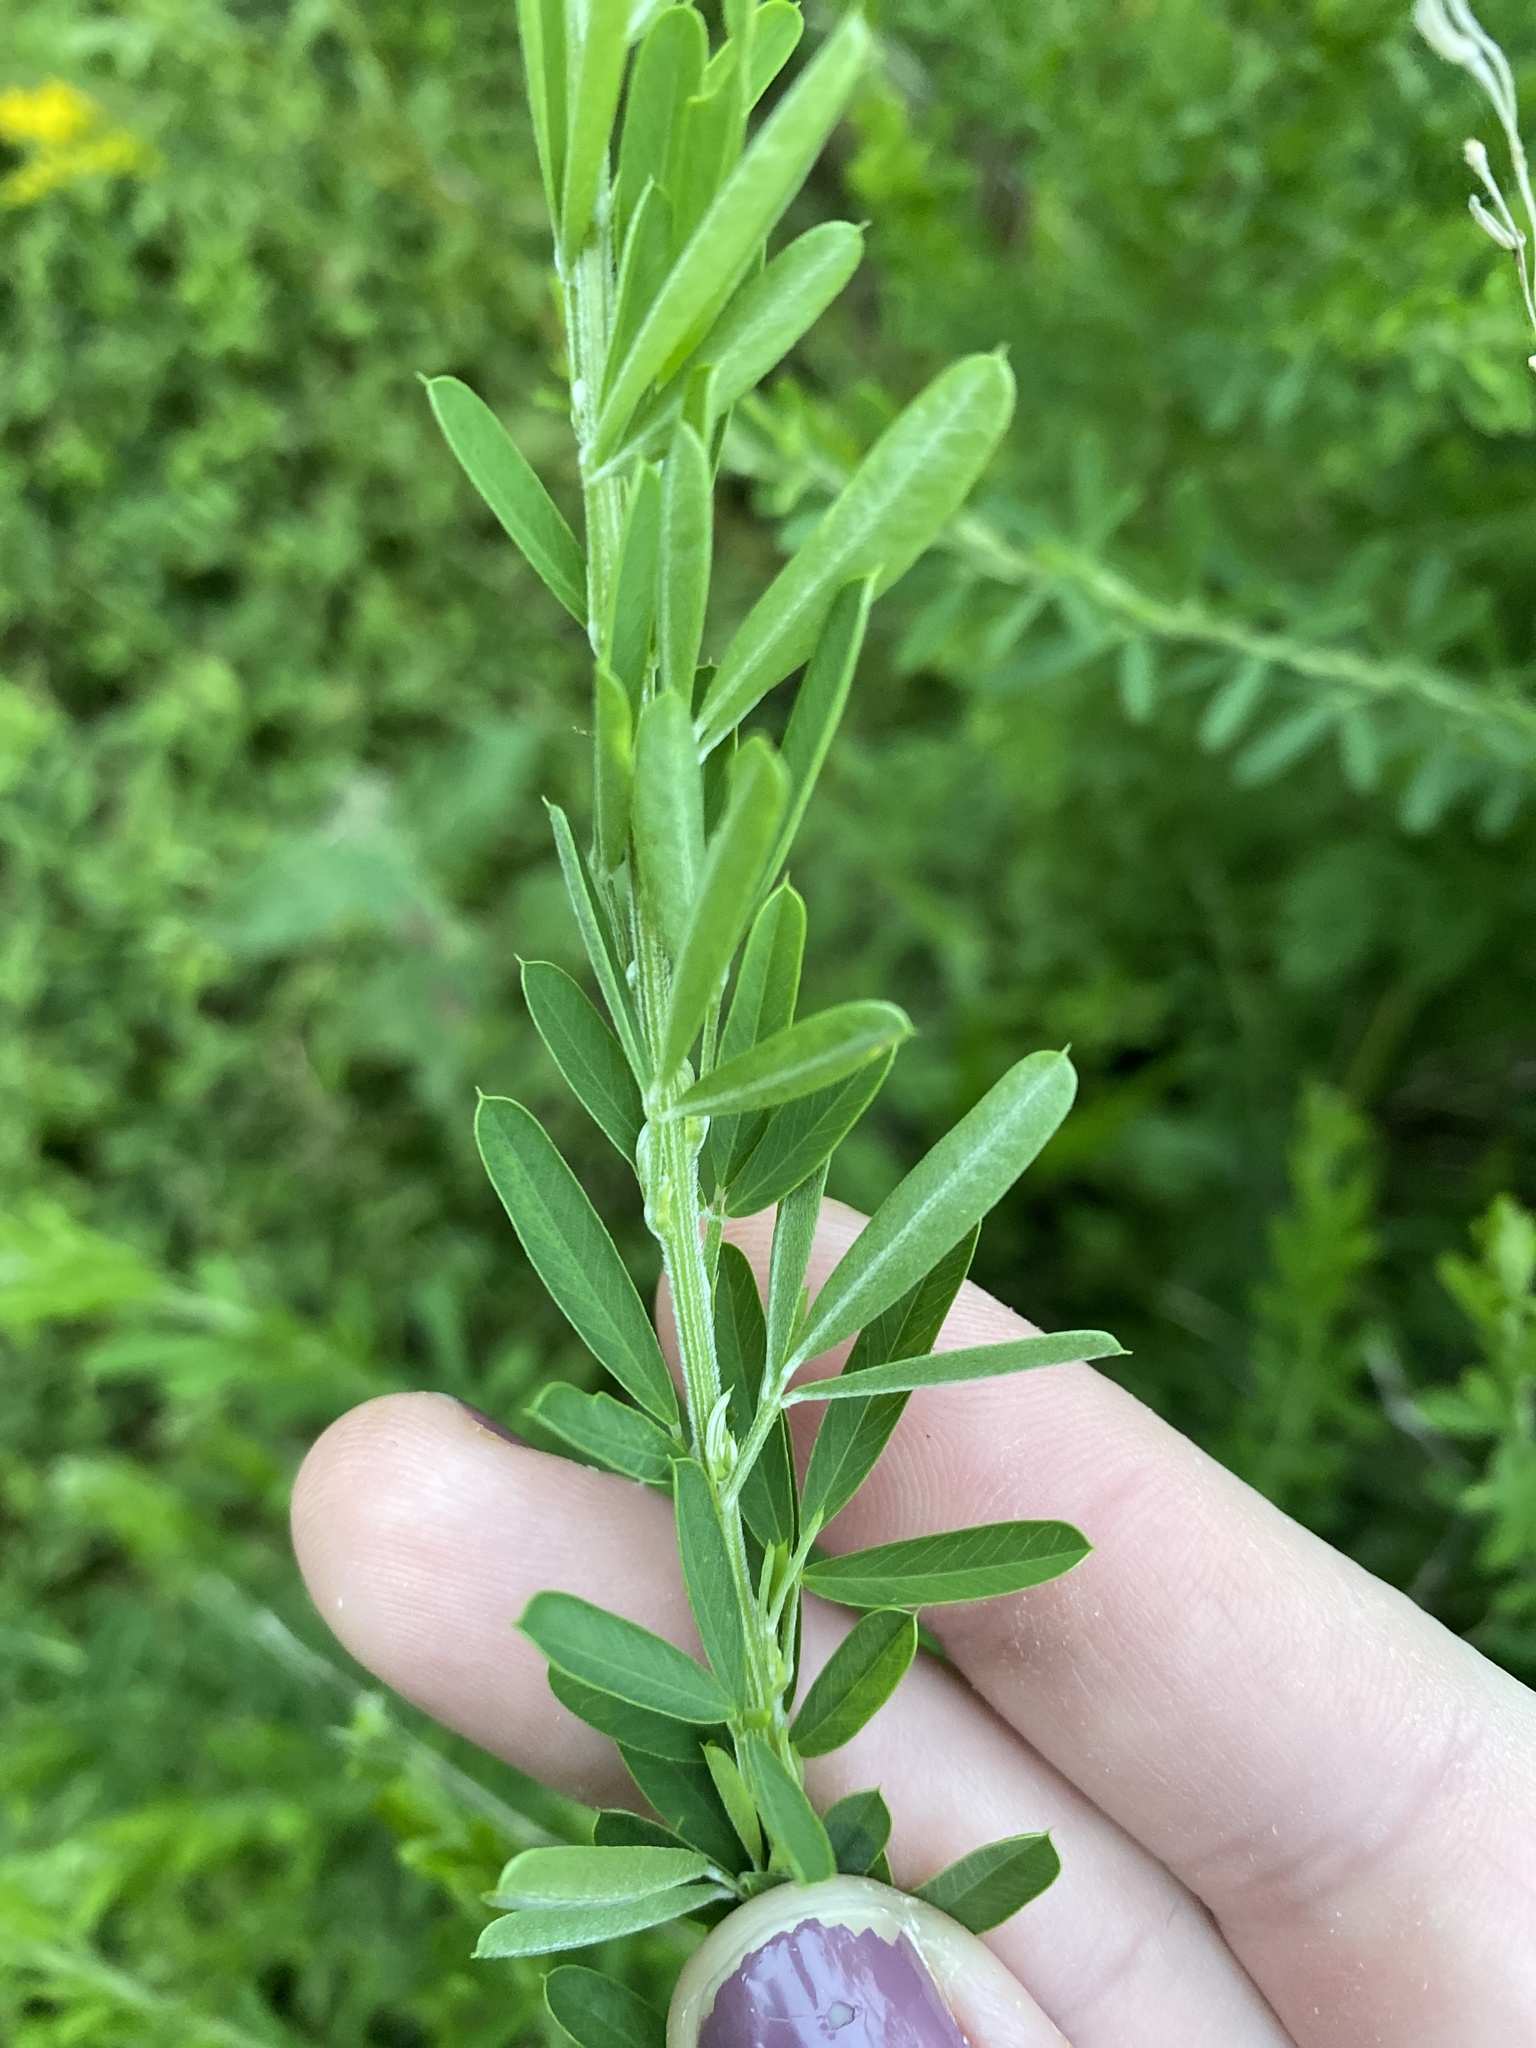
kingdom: Plantae
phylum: Tracheophyta
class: Magnoliopsida
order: Fabales
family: Fabaceae
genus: Lespedeza
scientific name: Lespedeza cuneata
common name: Chinese bush-clover
